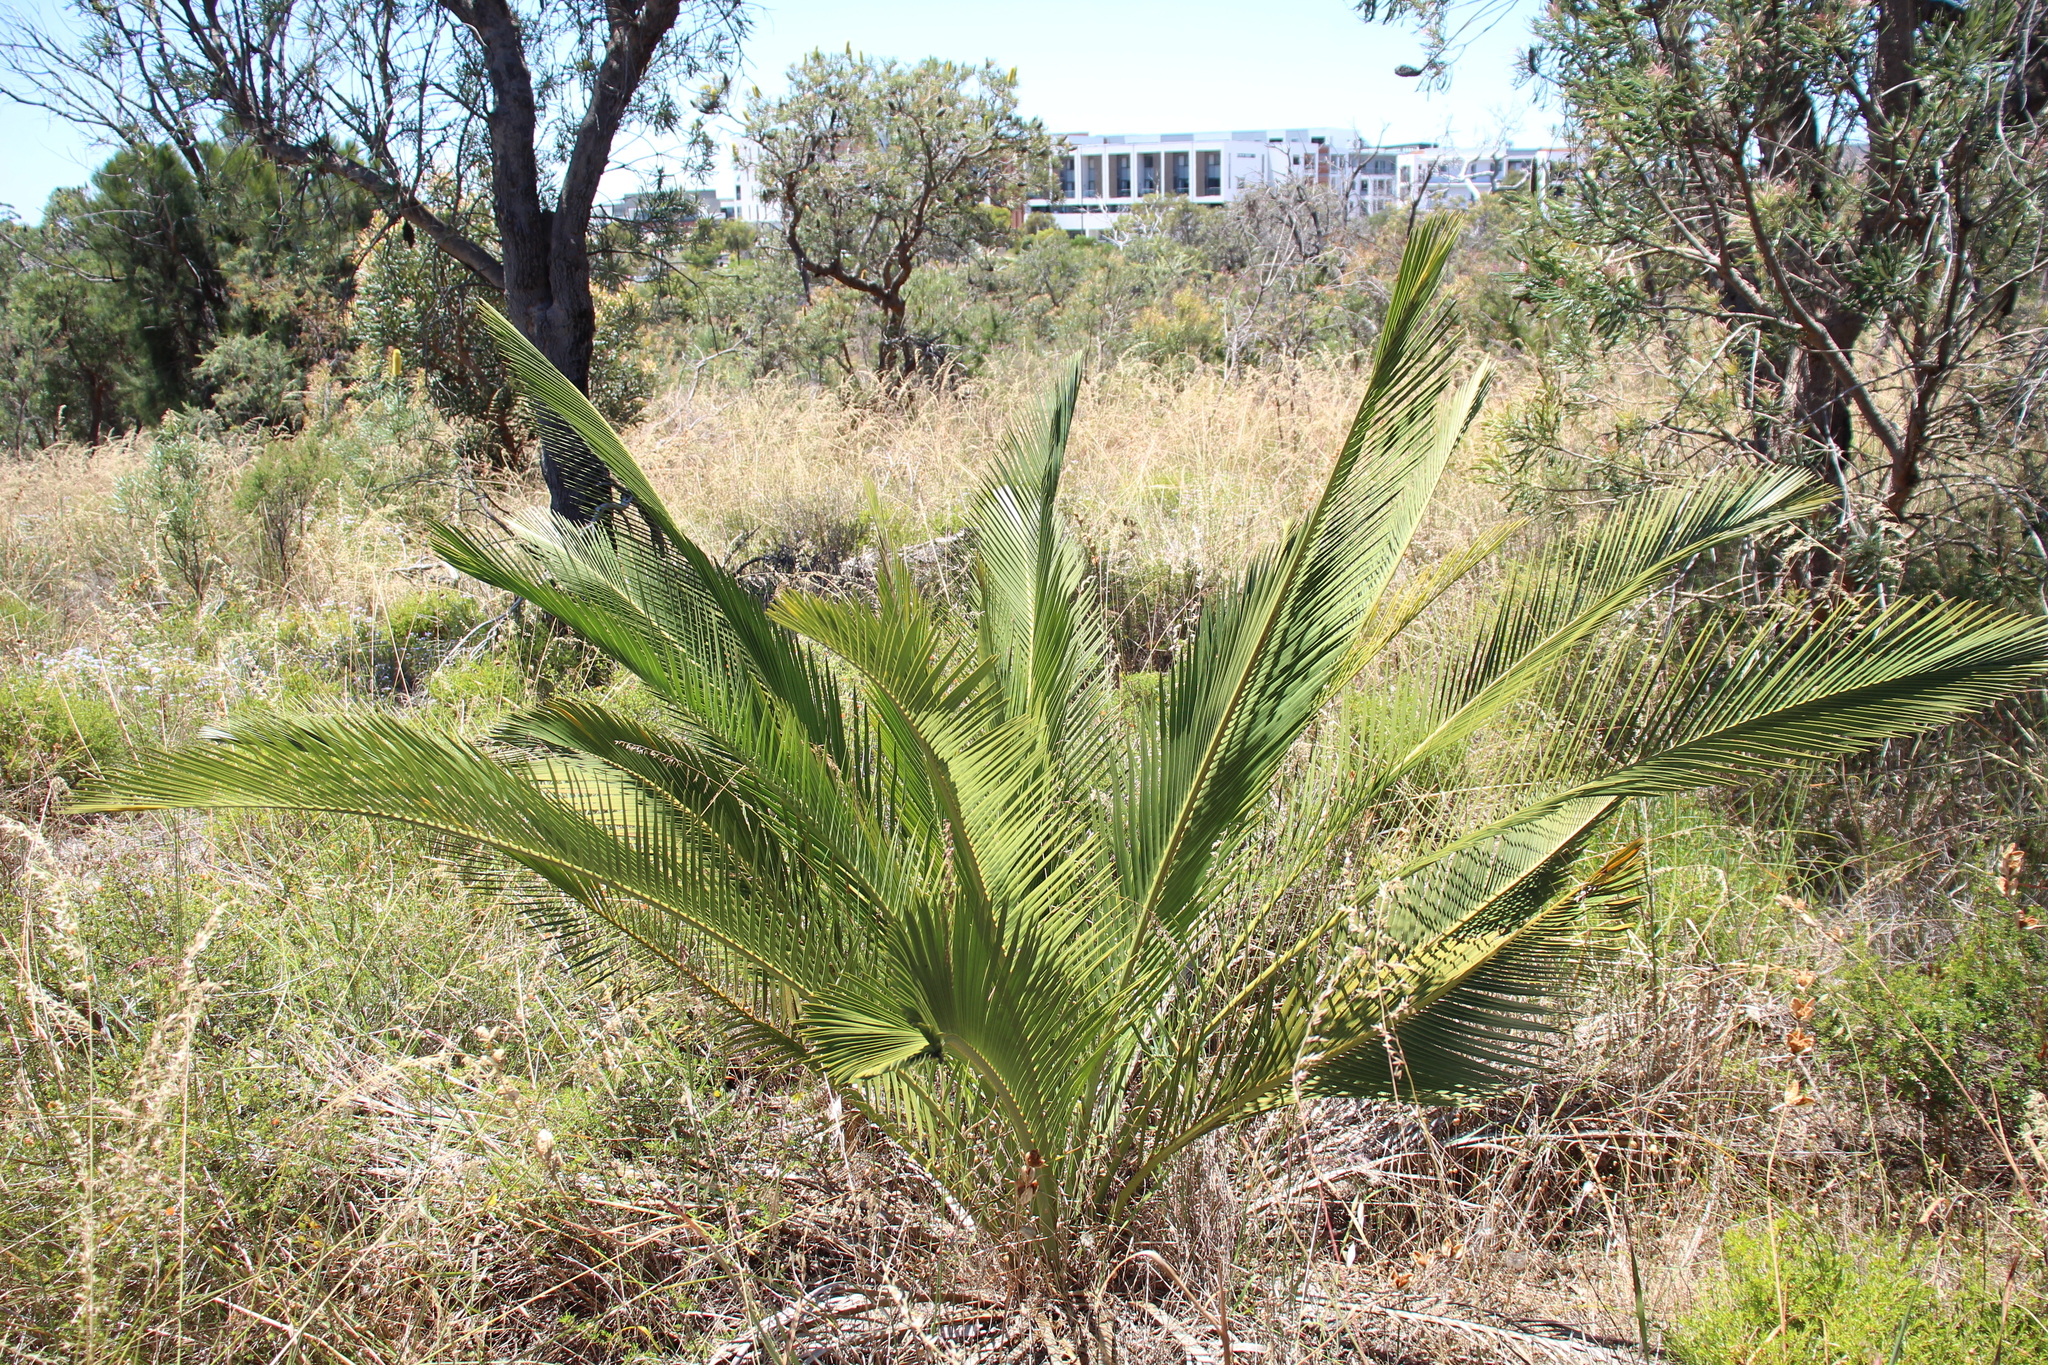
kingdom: Plantae
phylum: Tracheophyta
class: Cycadopsida
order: Cycadales
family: Zamiaceae
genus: Macrozamia
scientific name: Macrozamia fraseri
